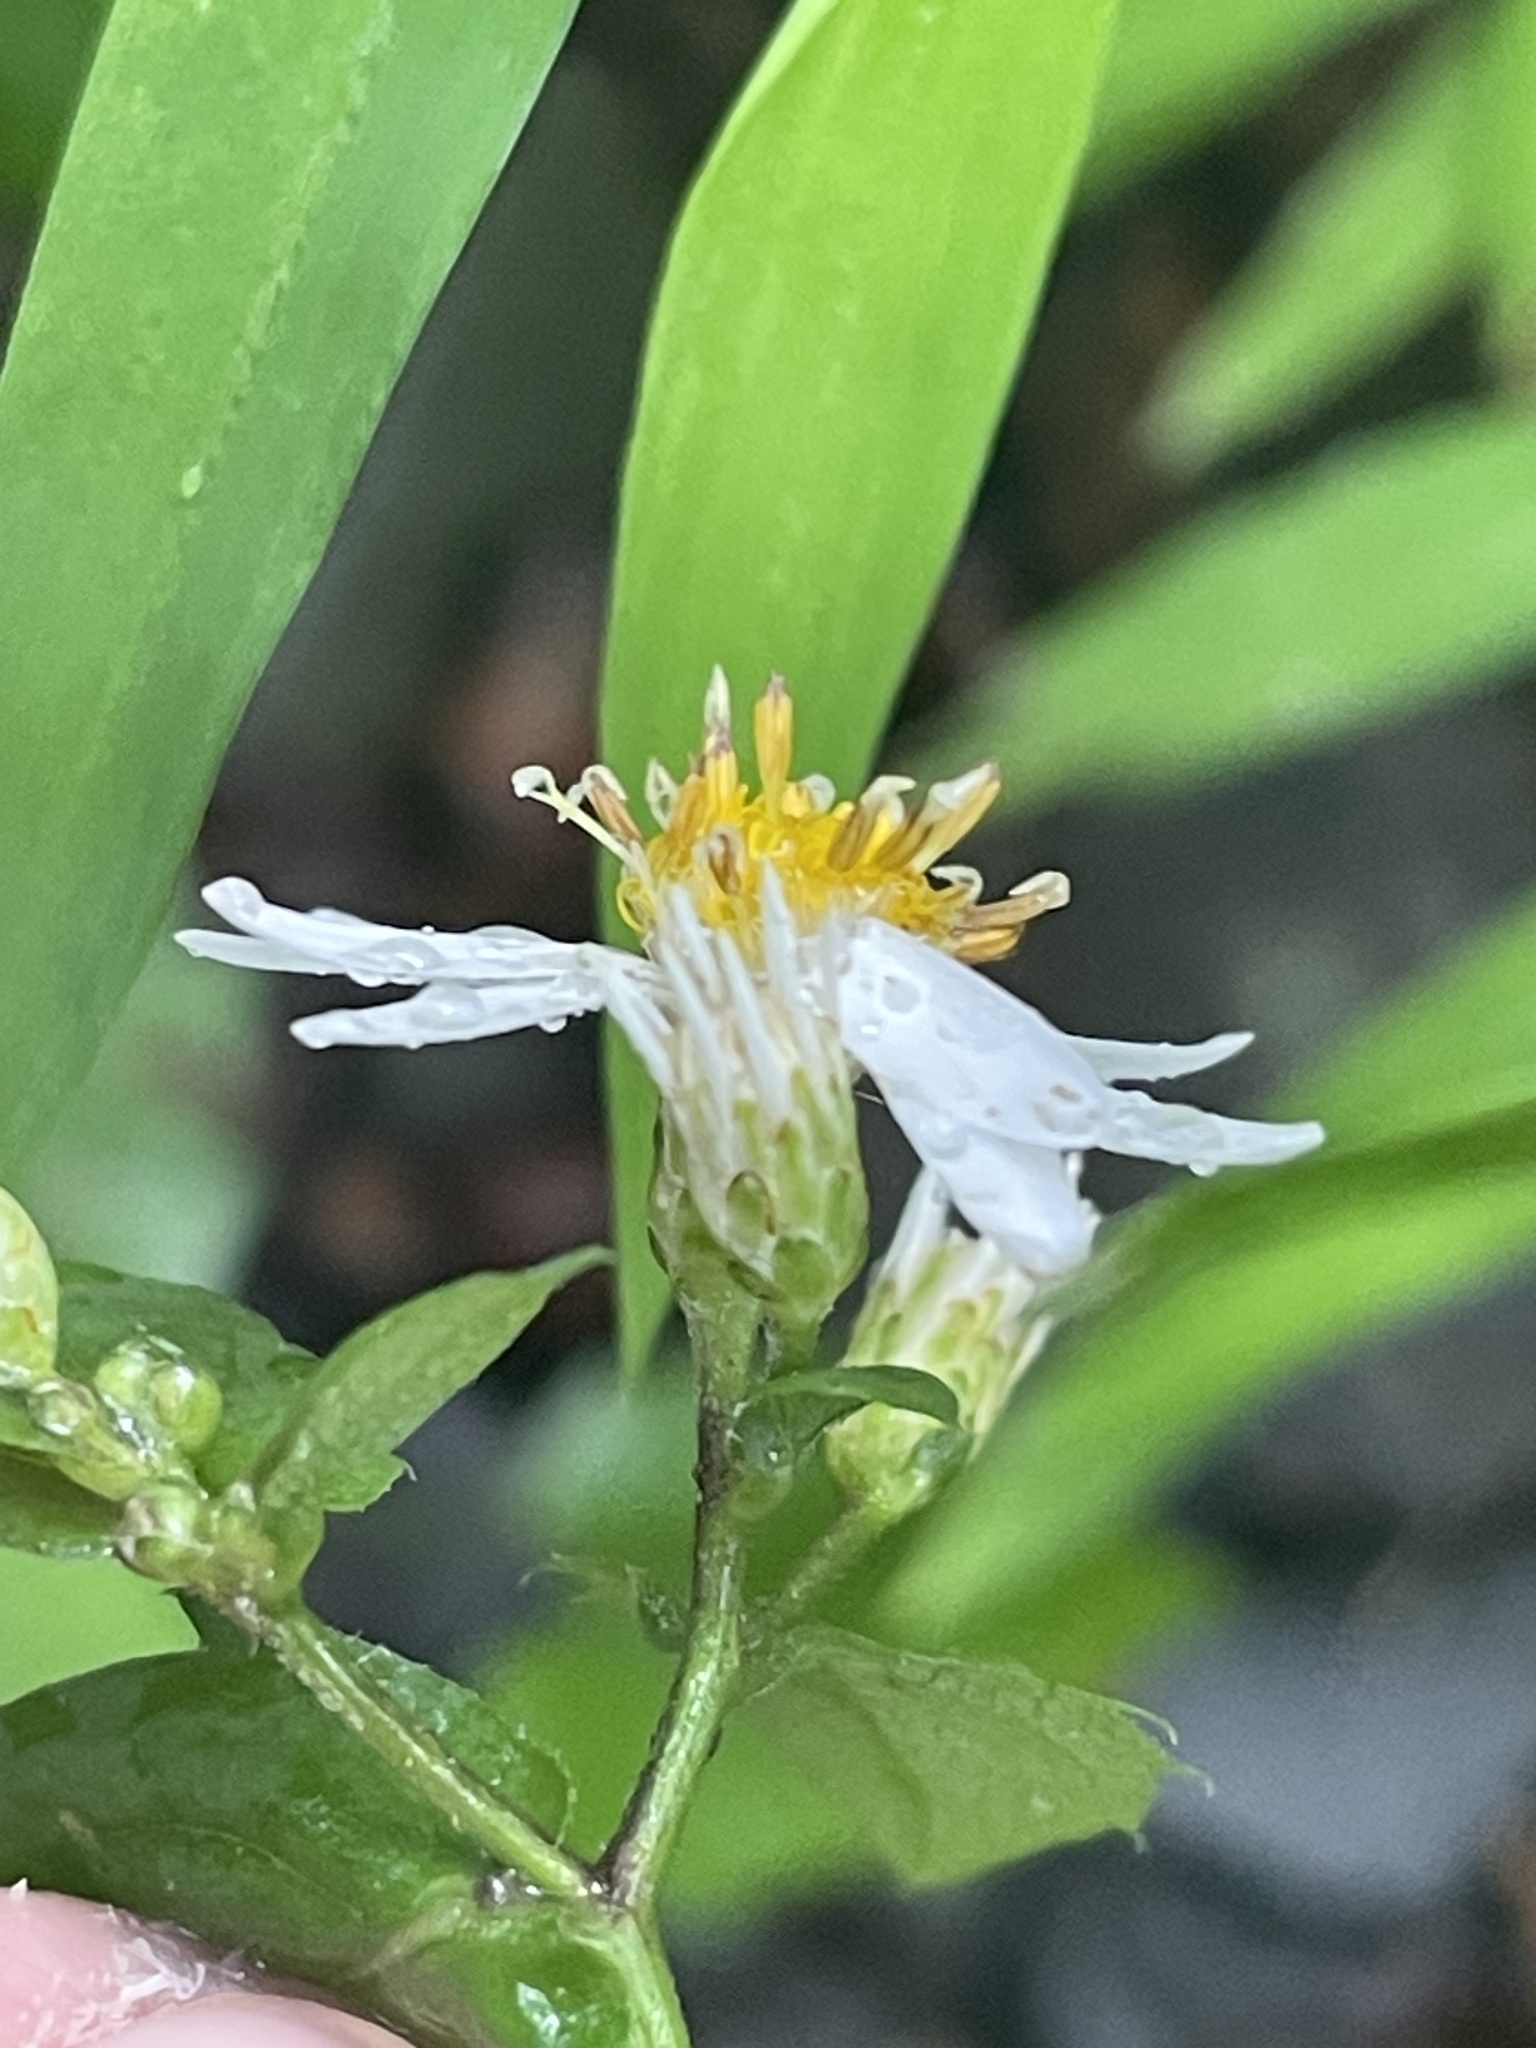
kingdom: Plantae
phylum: Tracheophyta
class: Magnoliopsida
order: Asterales
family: Asteraceae
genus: Eurybia
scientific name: Eurybia divaricata
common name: White wood aster
